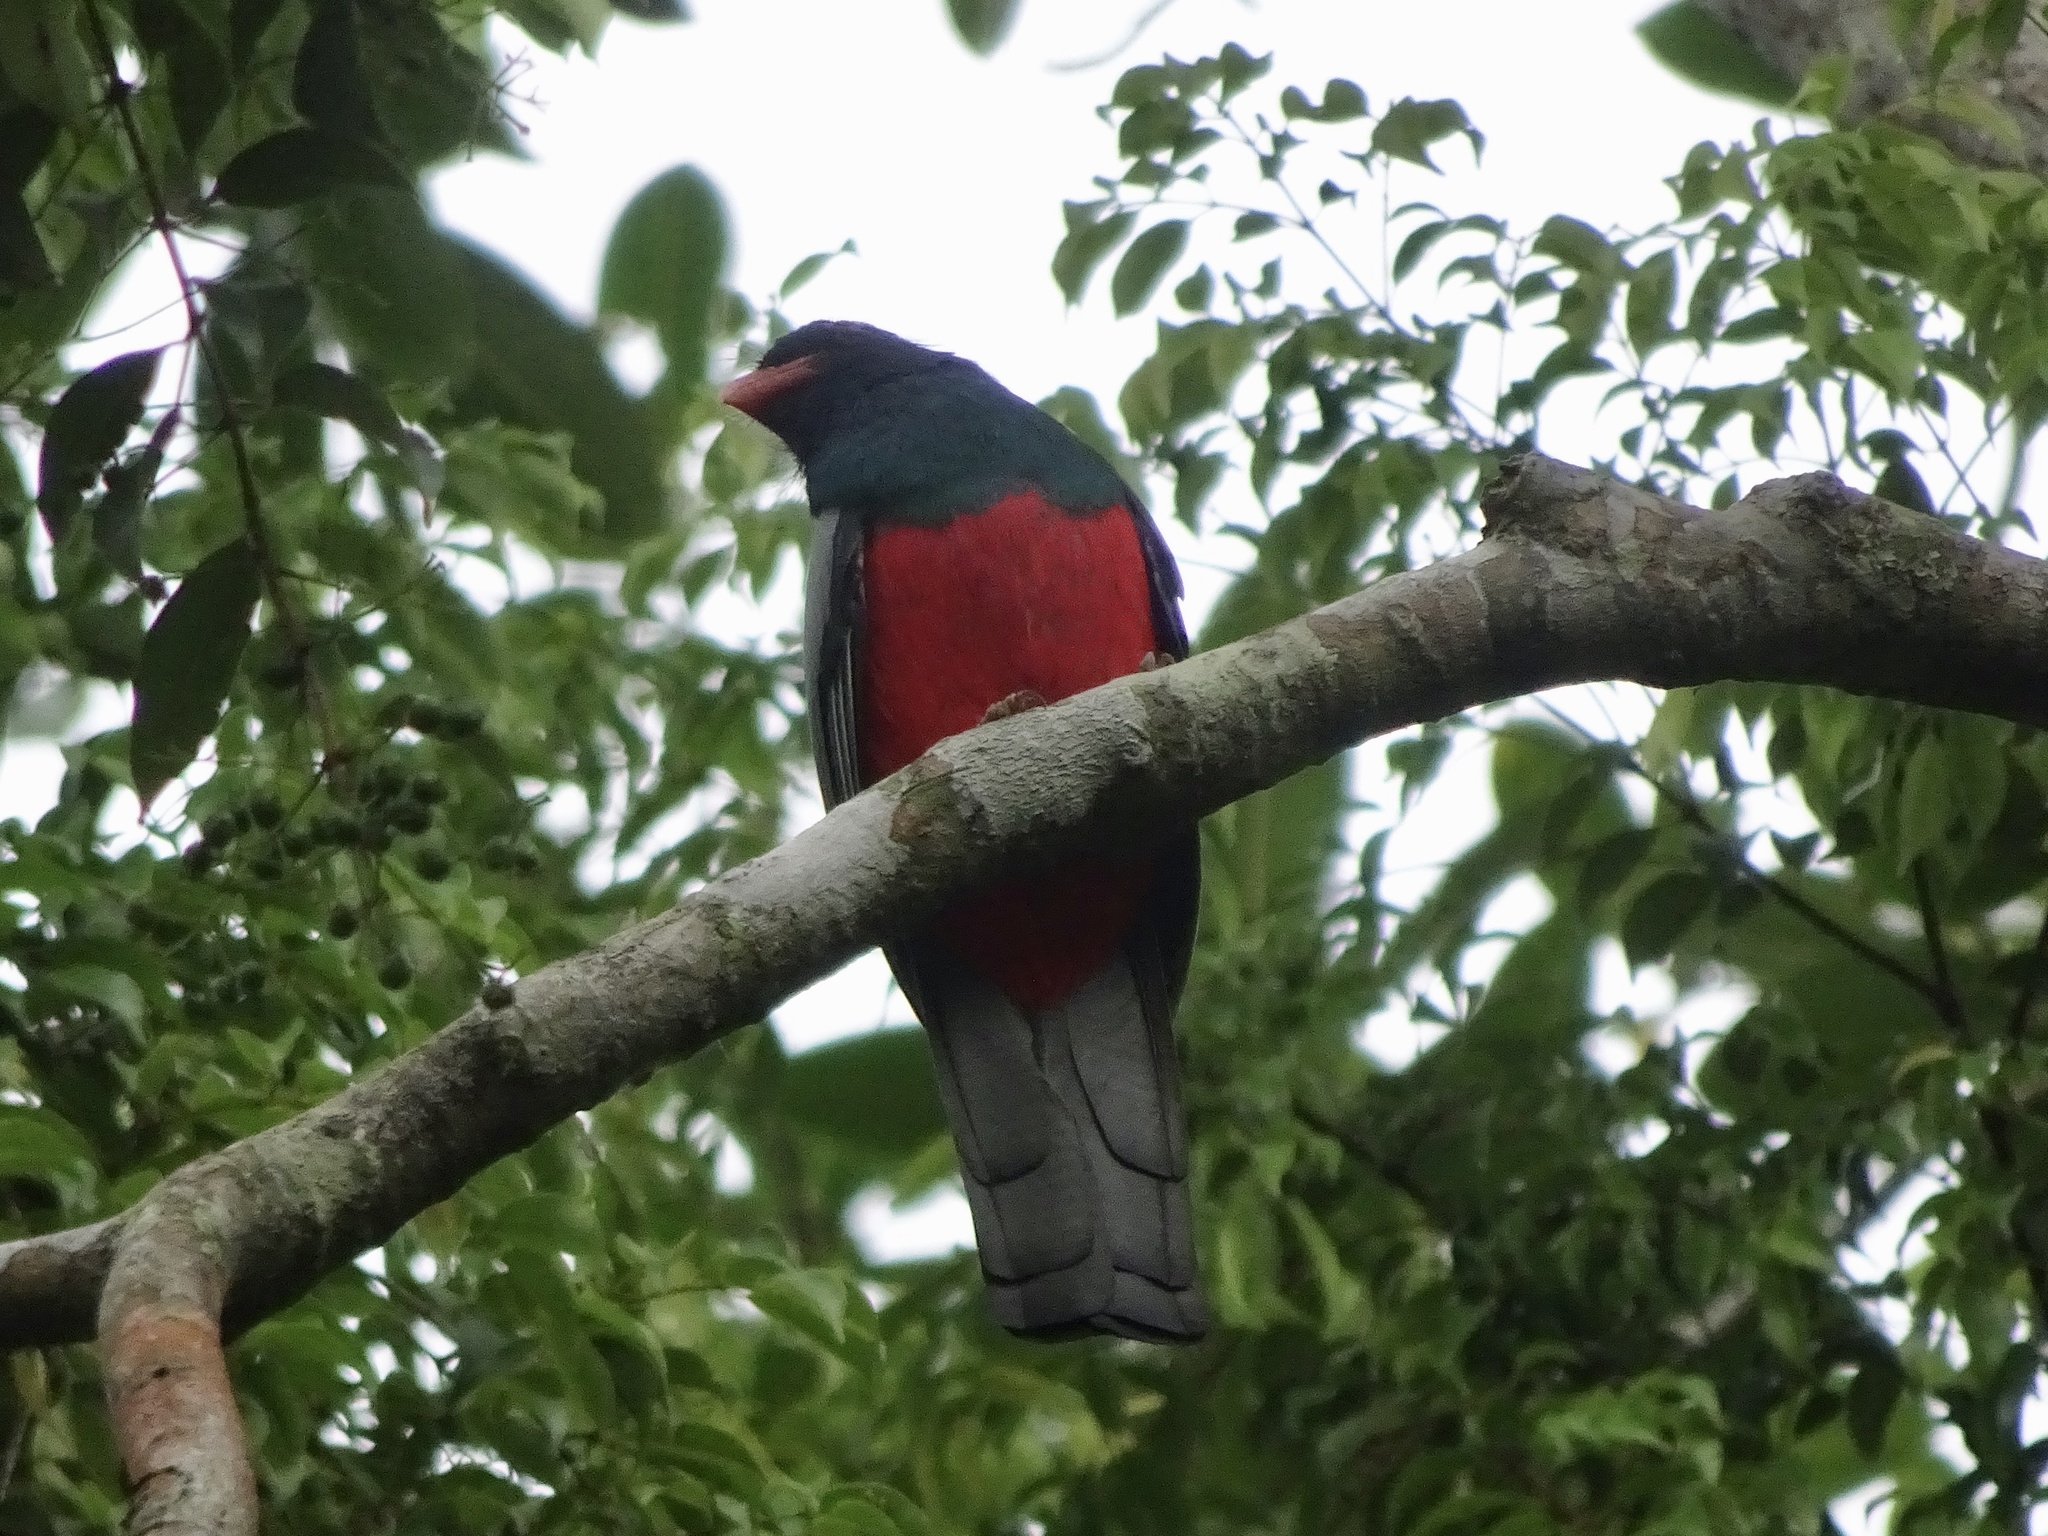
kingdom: Animalia
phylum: Chordata
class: Aves
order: Trogoniformes
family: Trogonidae
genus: Trogon
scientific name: Trogon massena
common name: Slaty-tailed trogon
